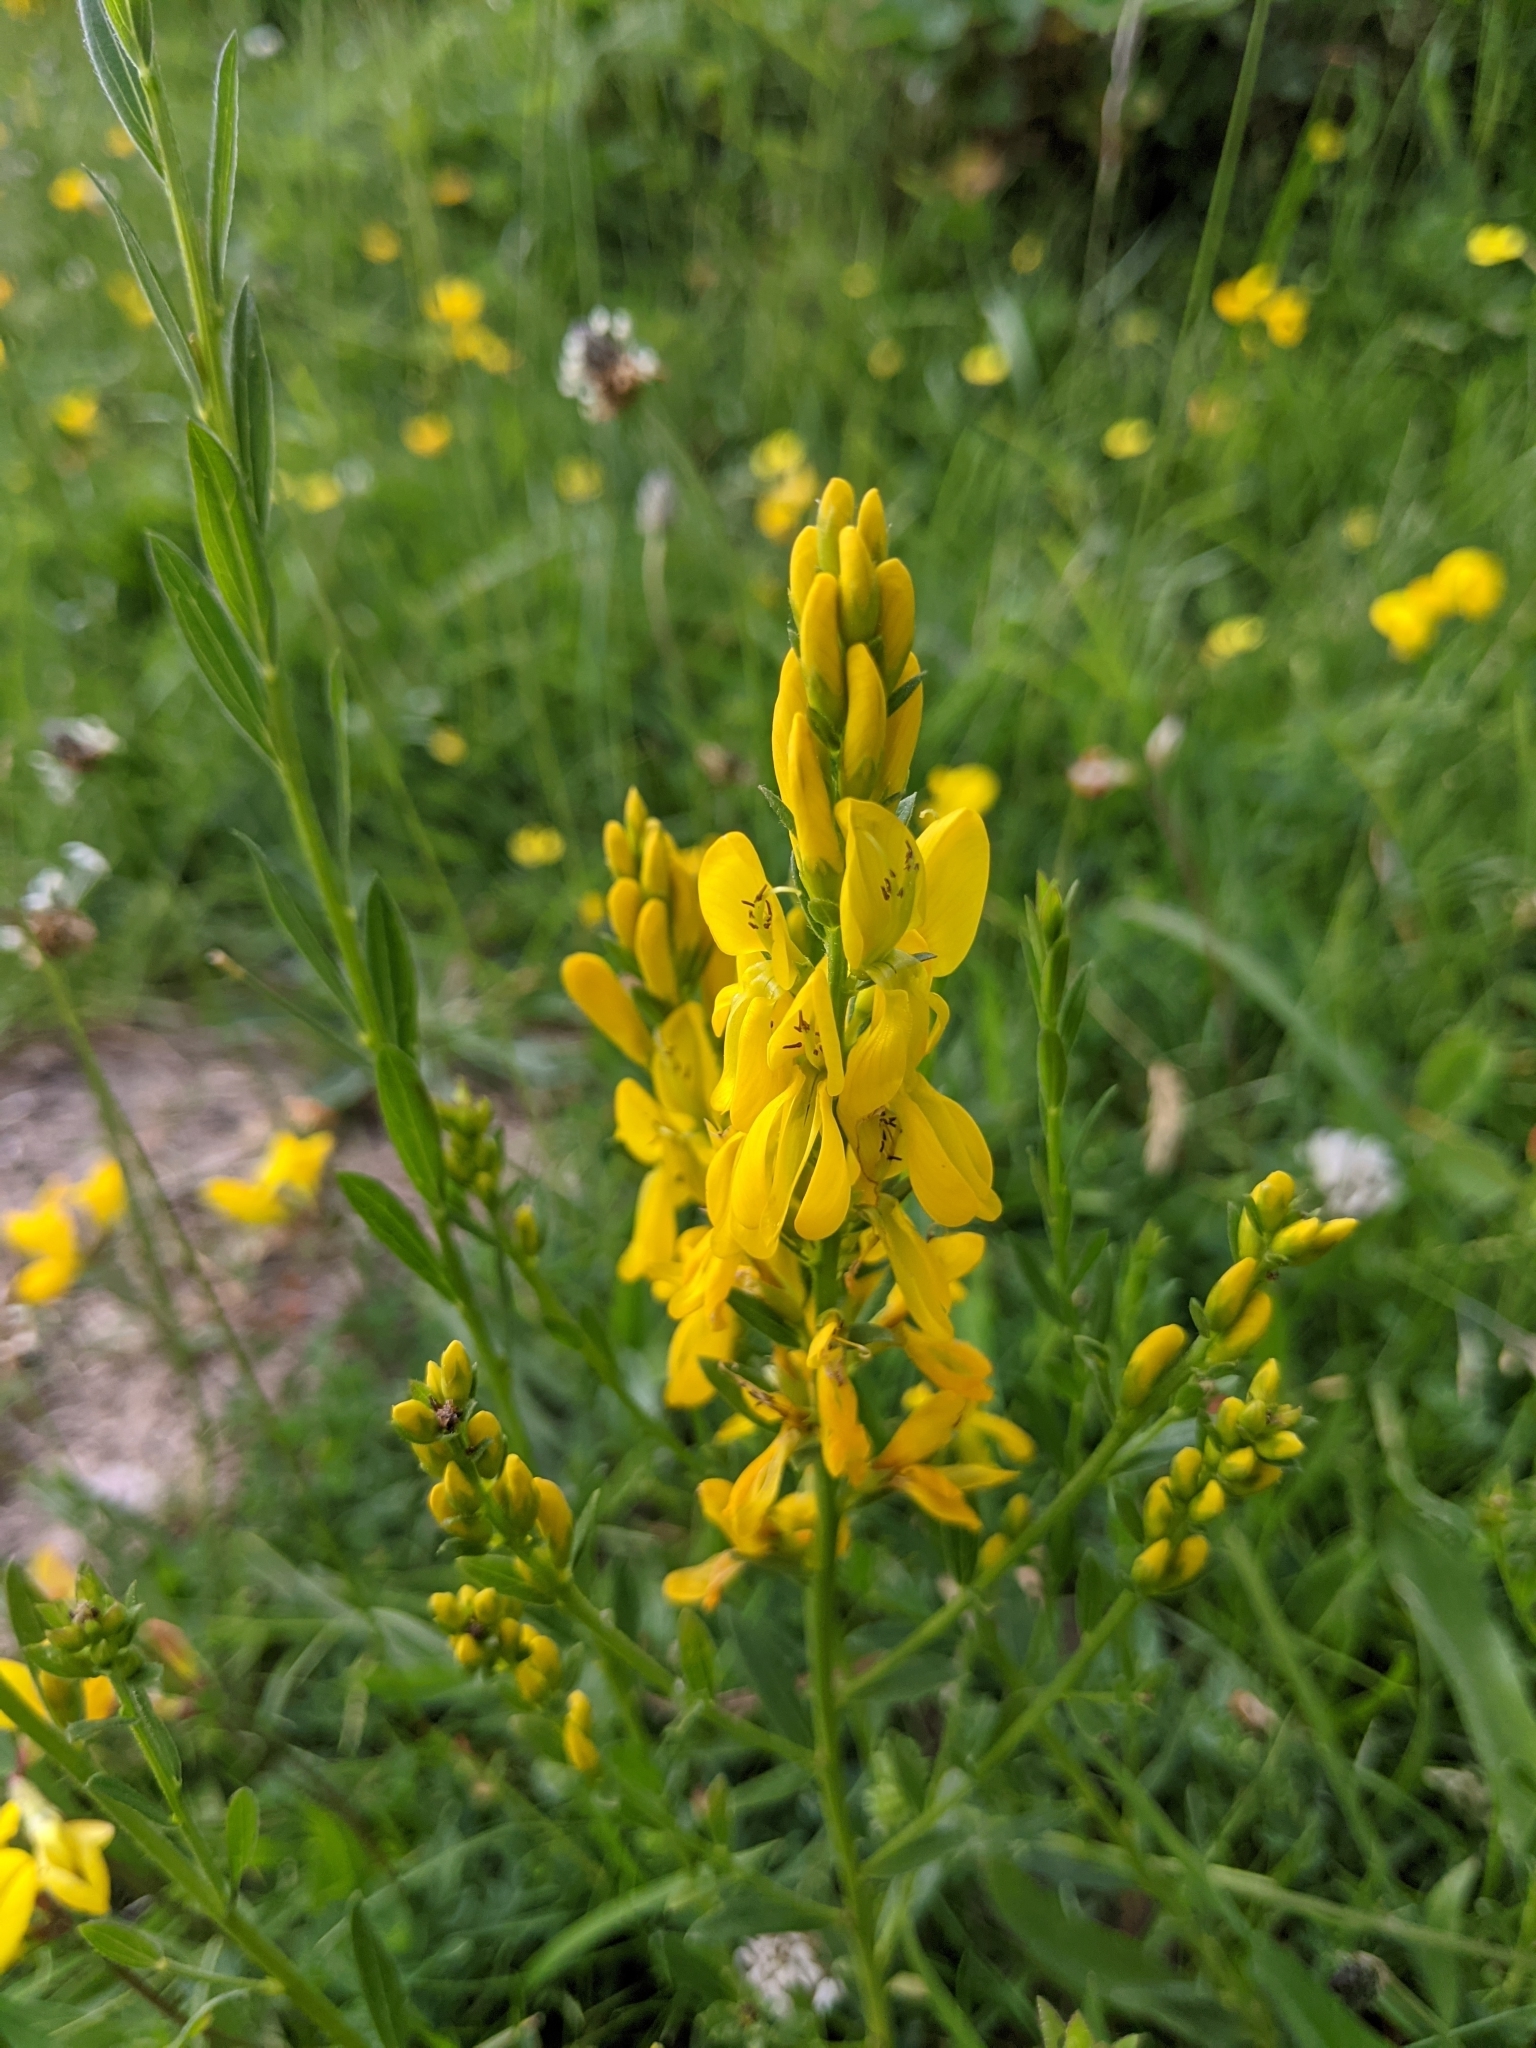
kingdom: Plantae
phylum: Tracheophyta
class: Magnoliopsida
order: Fabales
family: Fabaceae
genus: Genista
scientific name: Genista tinctoria
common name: Dyer's greenweed
